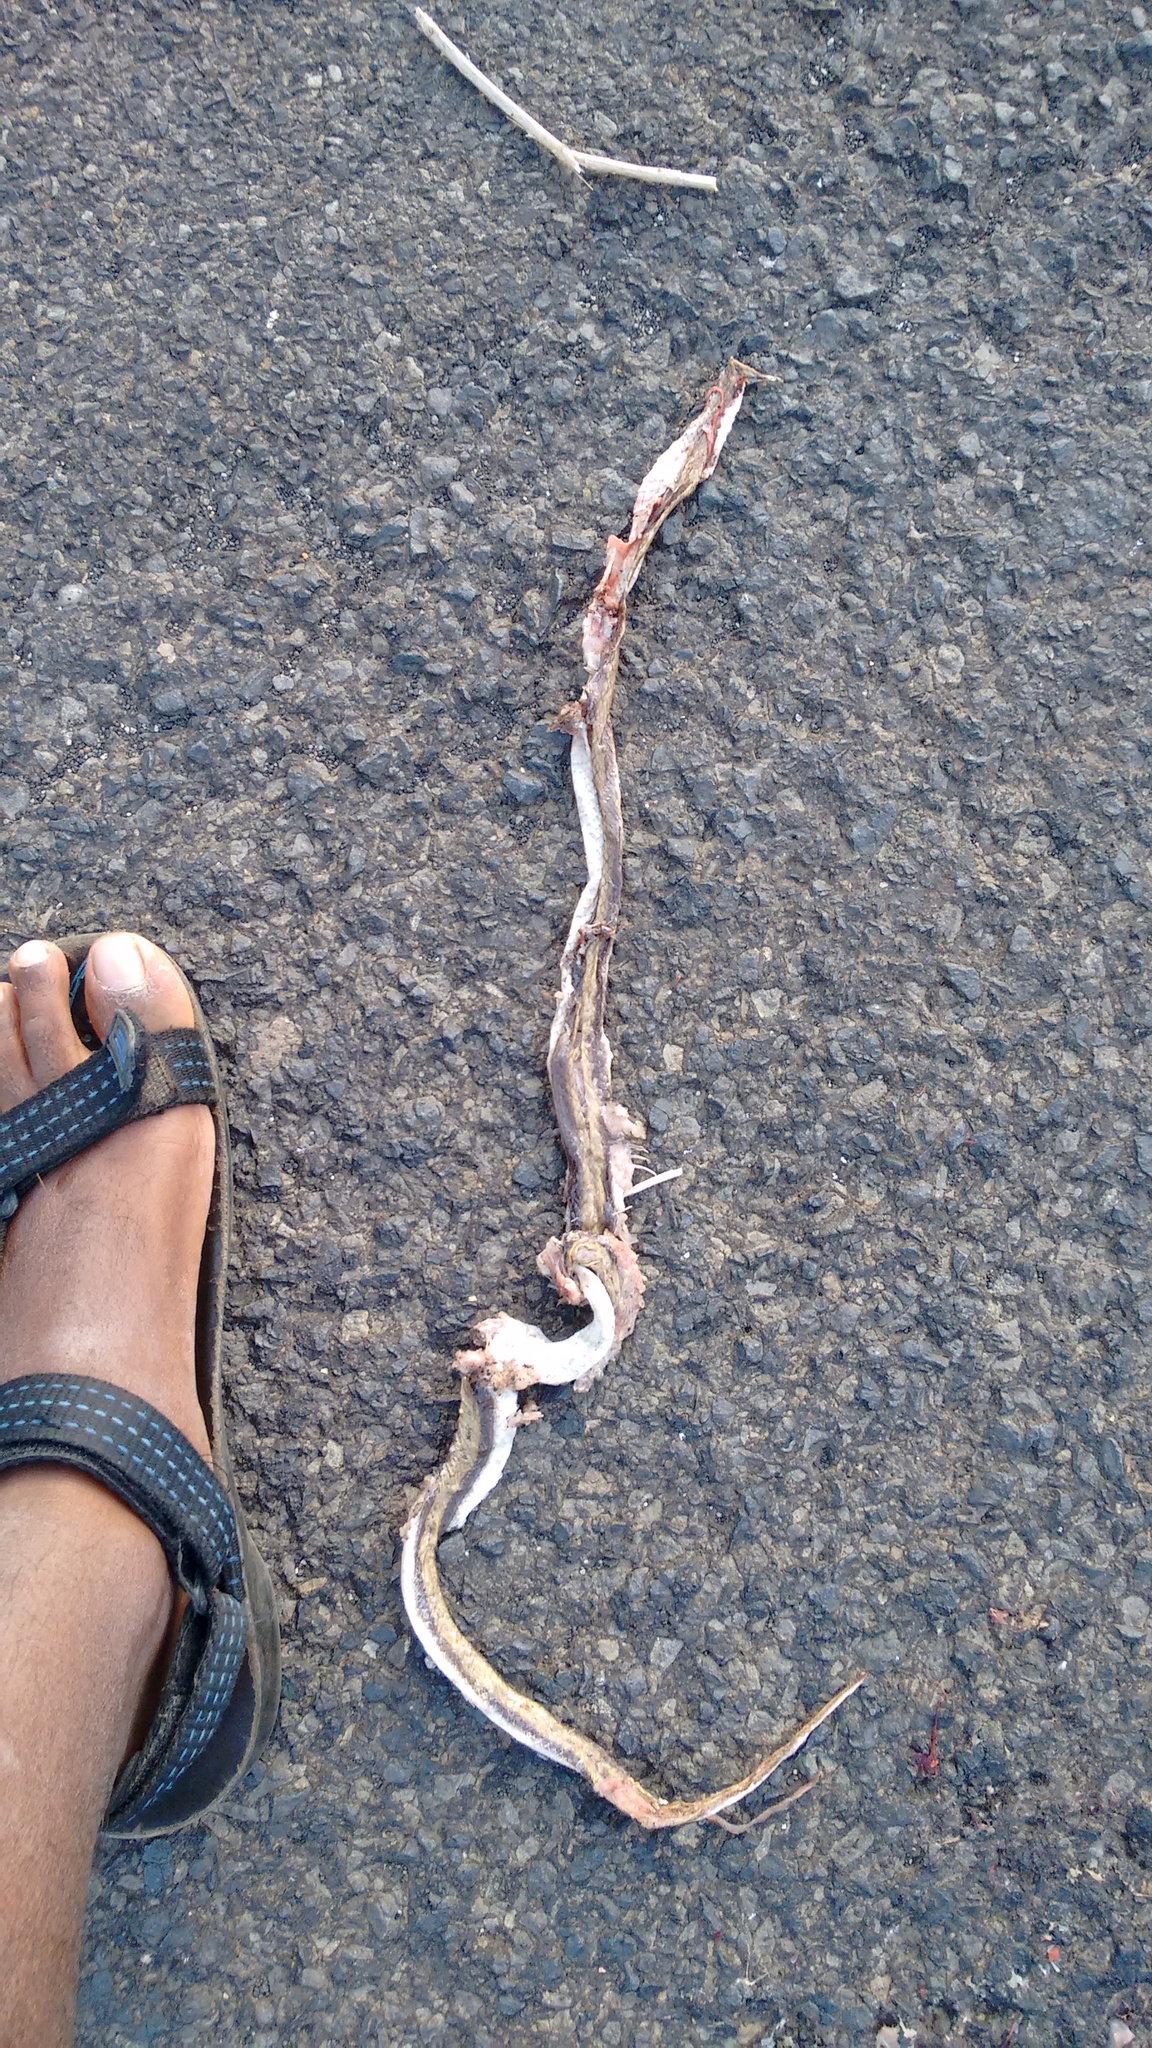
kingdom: Animalia
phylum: Chordata
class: Squamata
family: Colubridae
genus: Wallaceophis
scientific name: Wallaceophis gujaratensis
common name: Wallace’s racer
